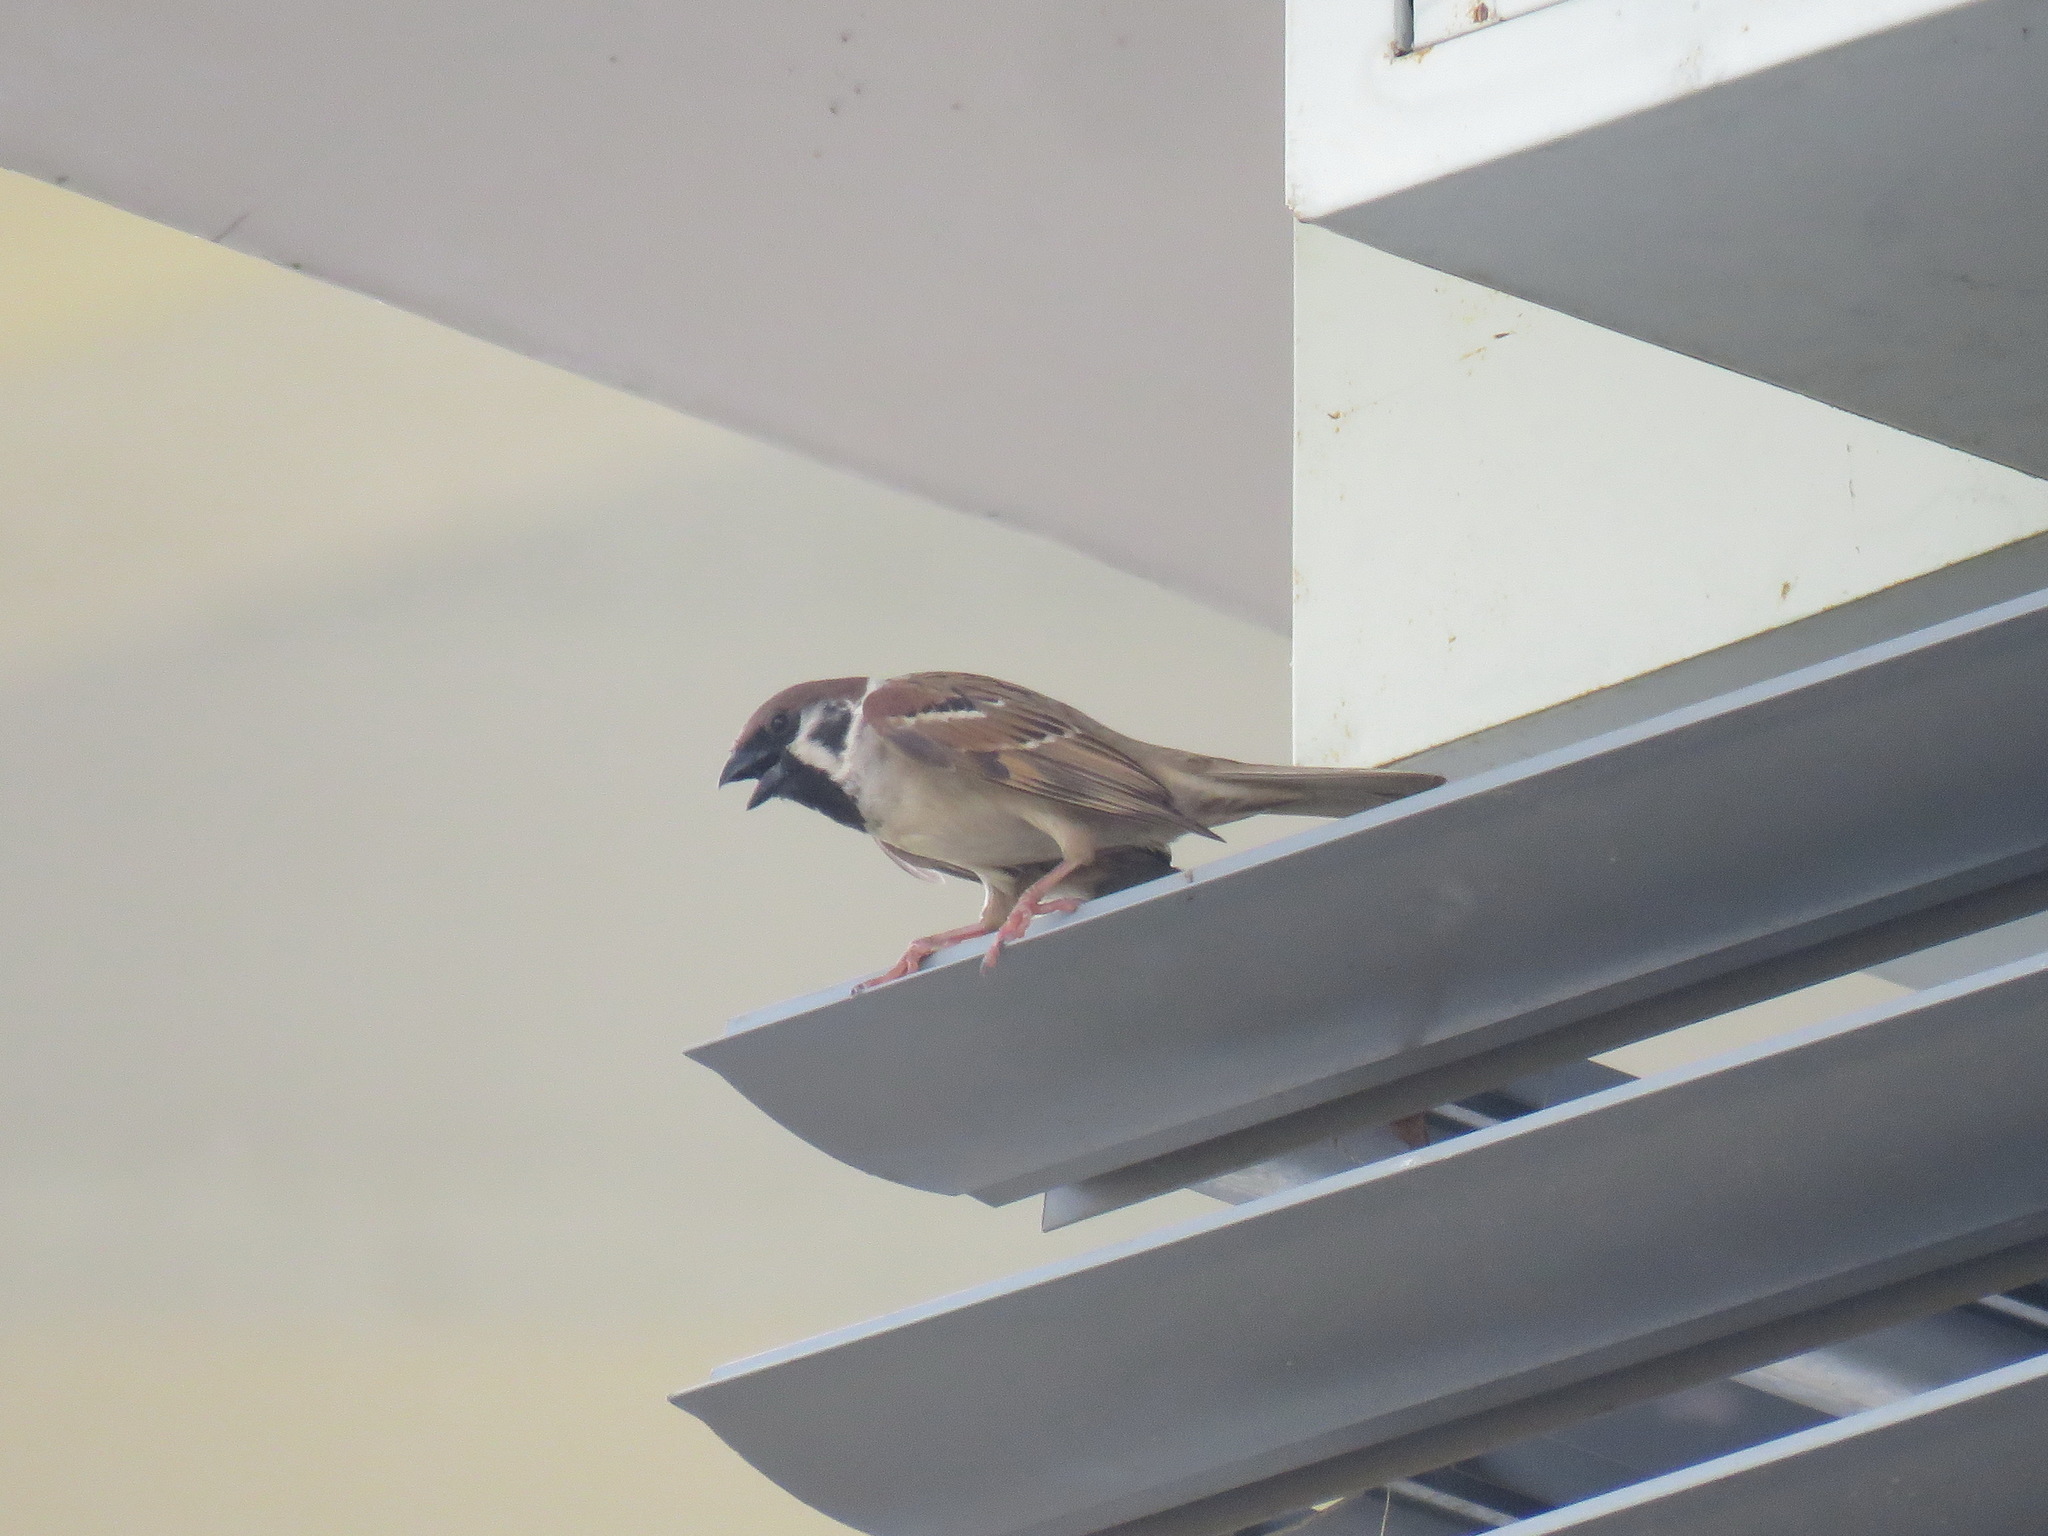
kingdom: Animalia
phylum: Chordata
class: Aves
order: Passeriformes
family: Passeridae
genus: Passer
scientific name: Passer montanus
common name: Eurasian tree sparrow
